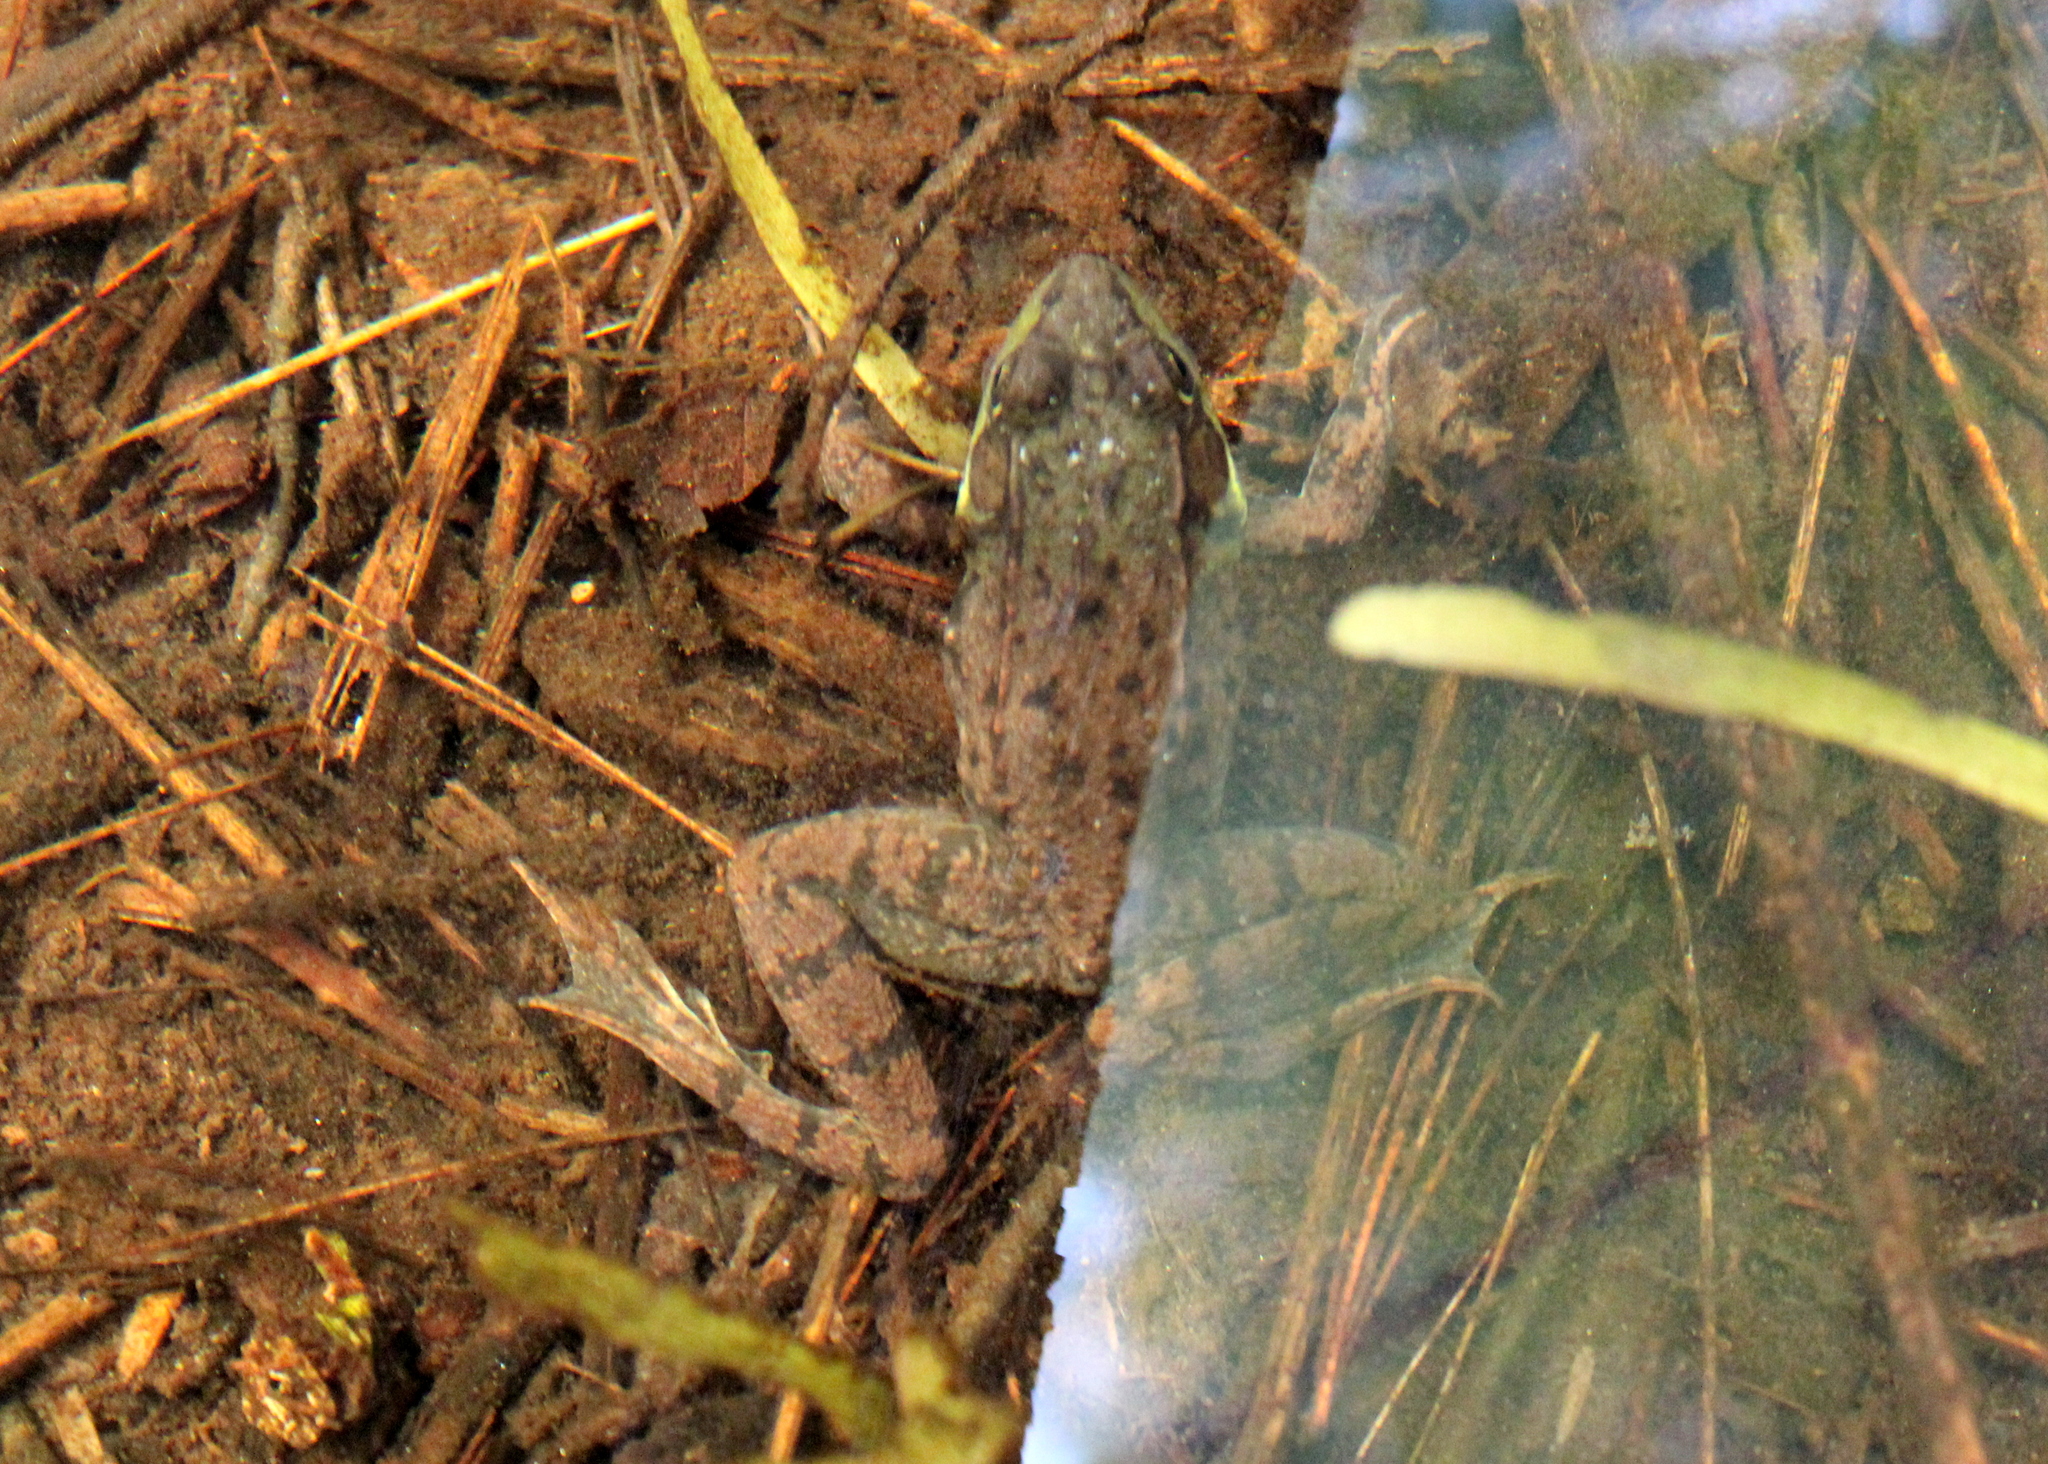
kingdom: Animalia
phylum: Chordata
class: Amphibia
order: Anura
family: Ranidae
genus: Lithobates
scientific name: Lithobates clamitans
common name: Green frog
